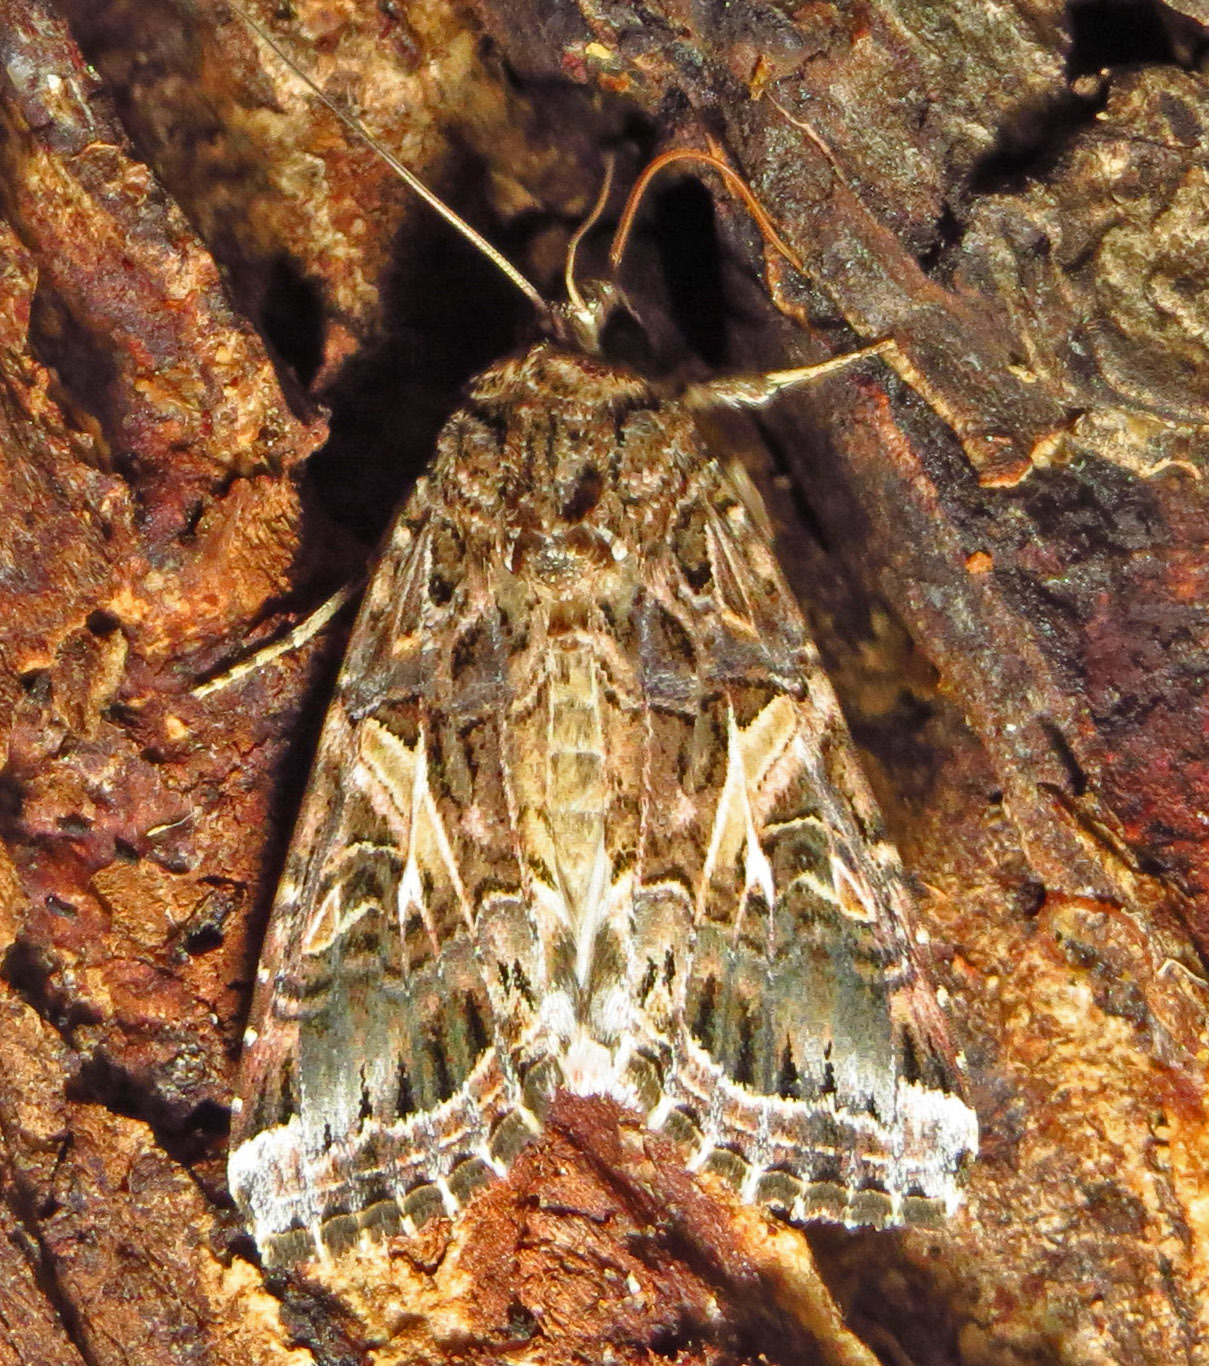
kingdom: Animalia
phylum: Arthropoda
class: Insecta
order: Lepidoptera
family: Noctuidae
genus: Spodoptera
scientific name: Spodoptera ornithogalli
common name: Yellow-striped armyworm
